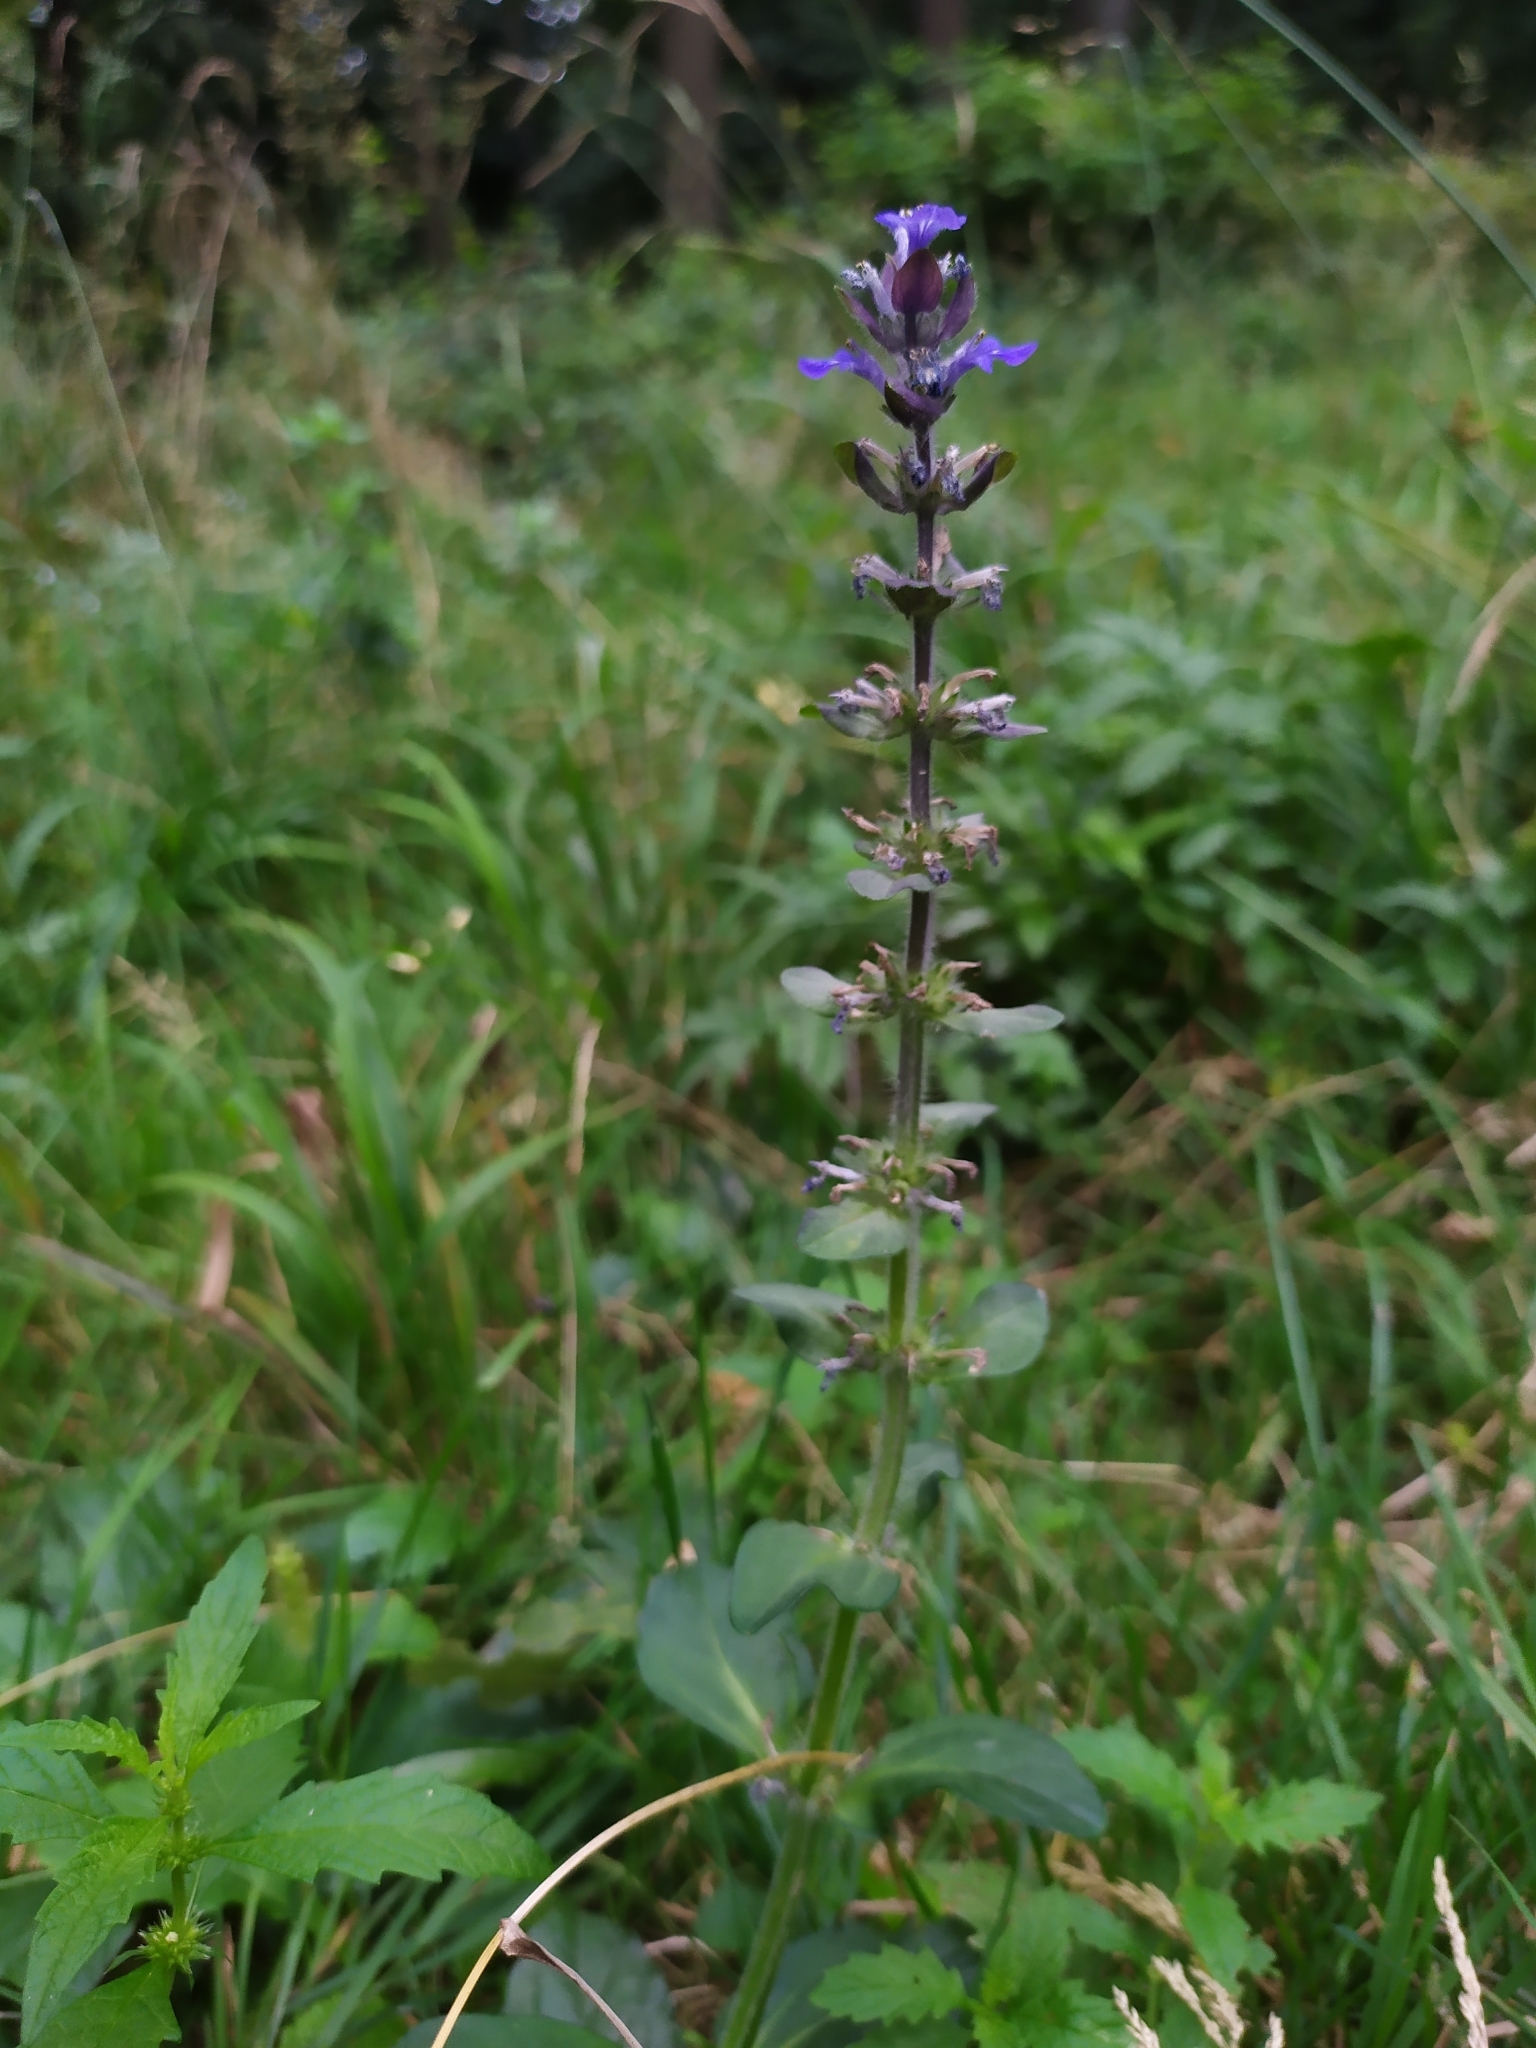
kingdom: Plantae
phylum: Tracheophyta
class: Magnoliopsida
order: Lamiales
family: Lamiaceae
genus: Ajuga
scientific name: Ajuga reptans
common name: Bugle
